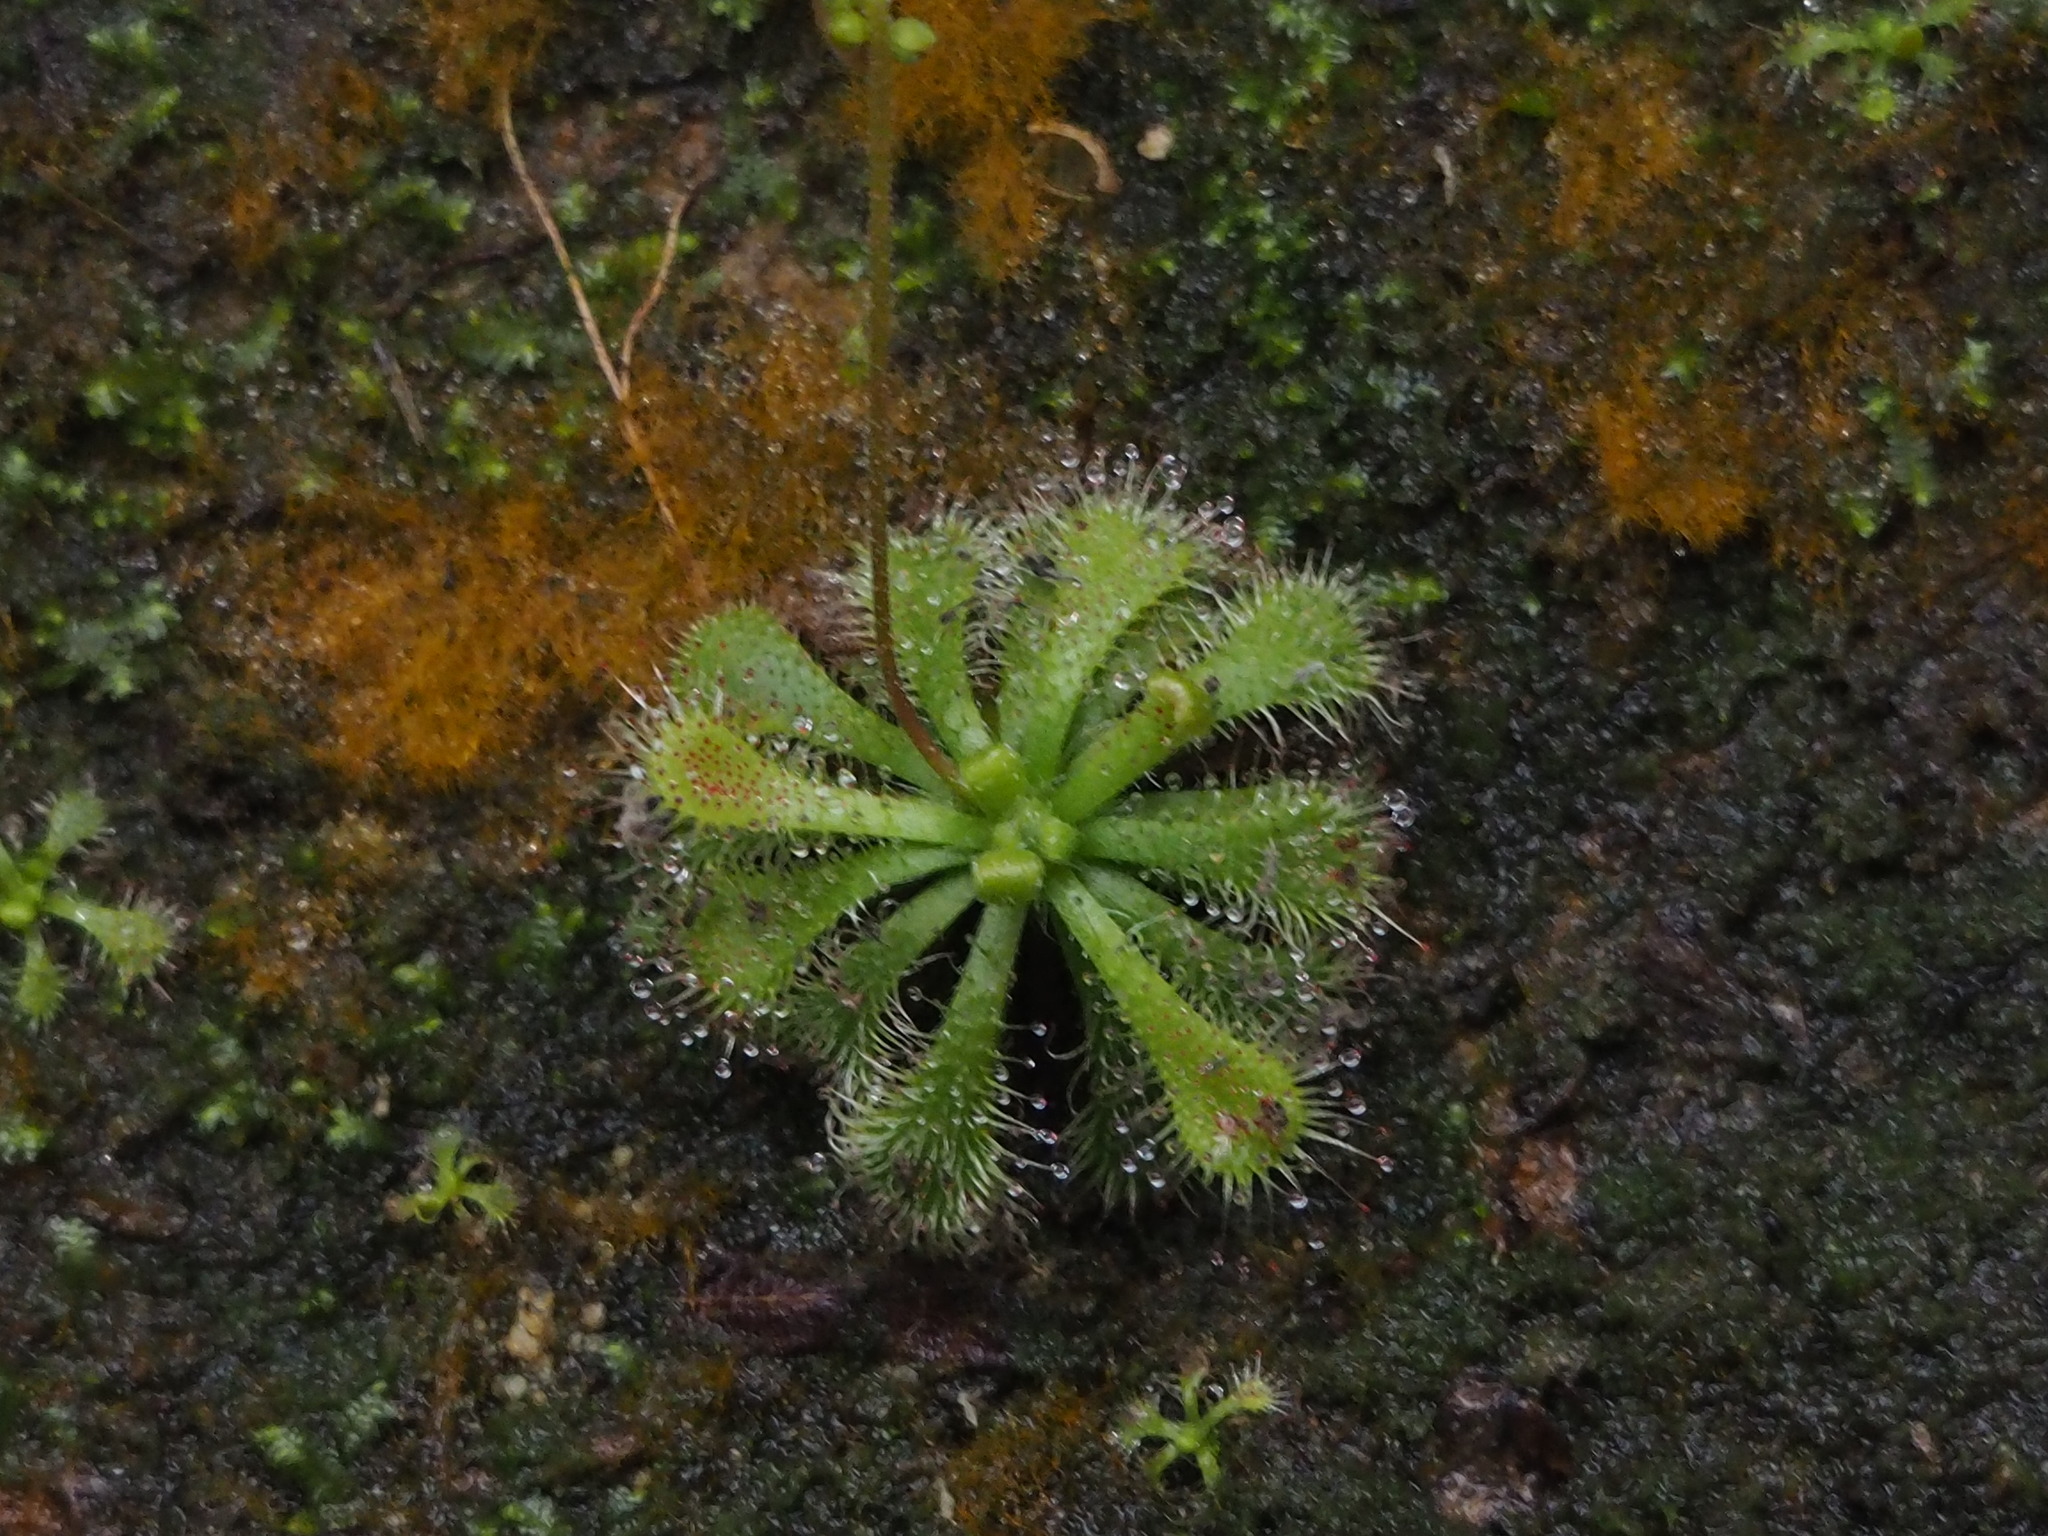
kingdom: Plantae
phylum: Tracheophyta
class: Magnoliopsida
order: Caryophyllales
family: Droseraceae
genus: Drosera
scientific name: Drosera spatulata
